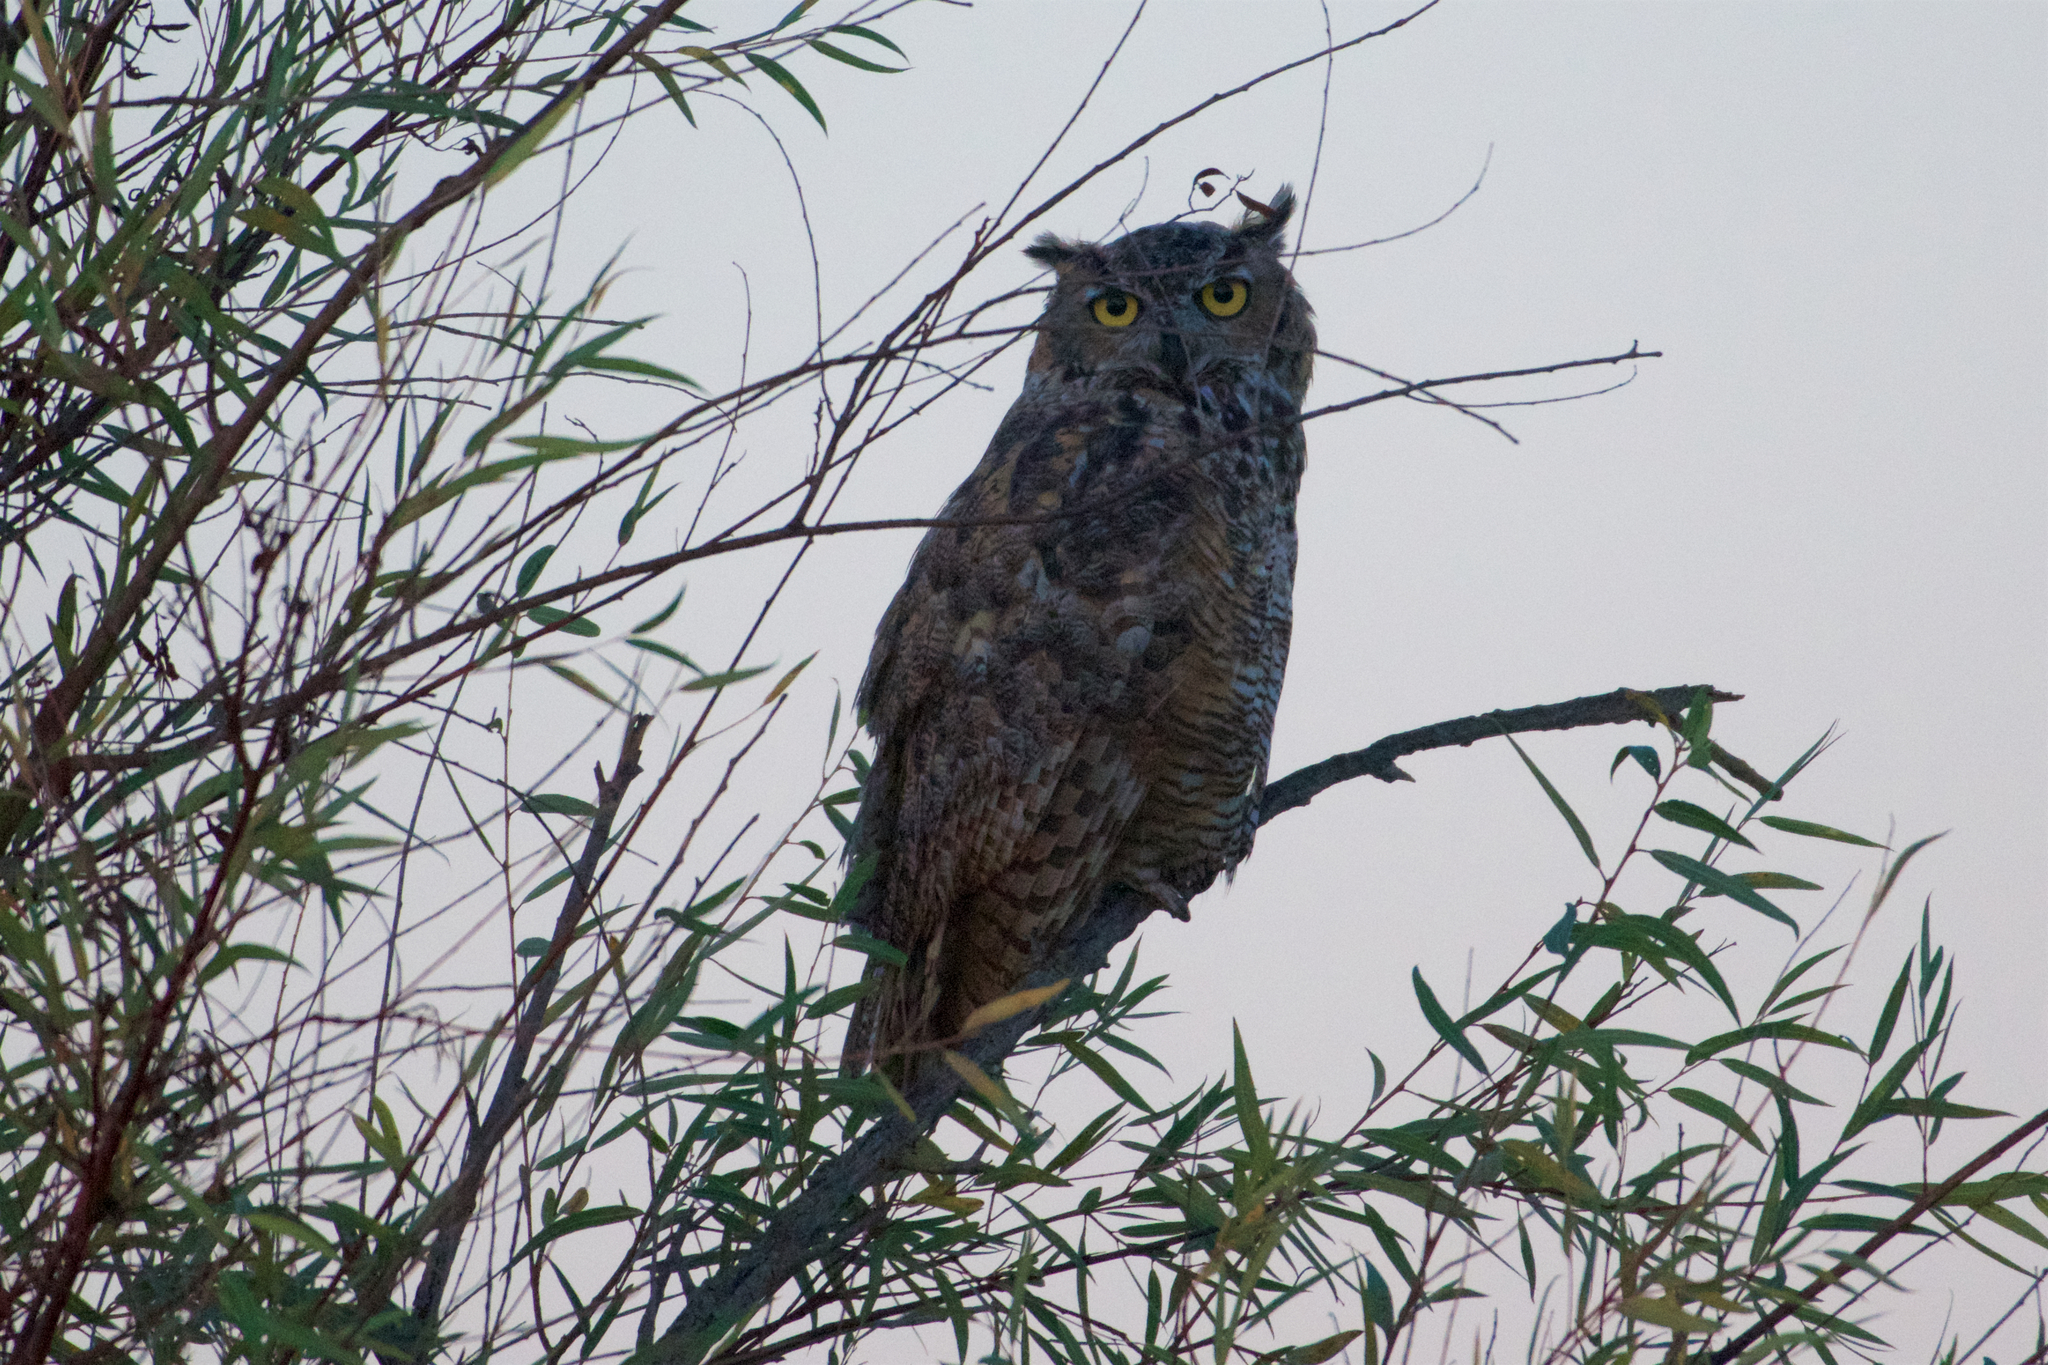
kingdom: Animalia
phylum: Chordata
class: Aves
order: Strigiformes
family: Strigidae
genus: Bubo
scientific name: Bubo virginianus
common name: Great horned owl
